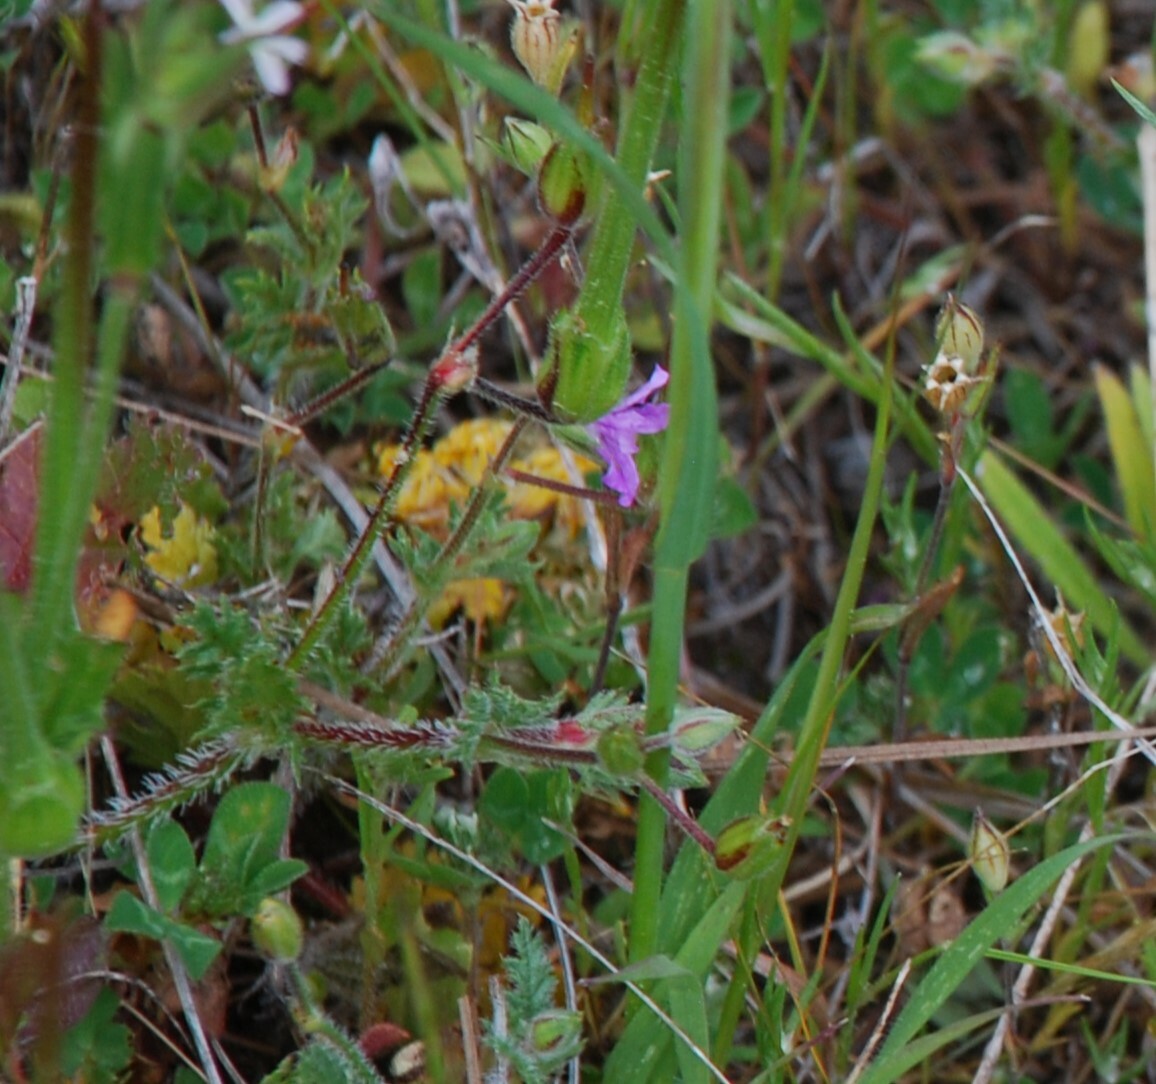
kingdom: Plantae
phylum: Tracheophyta
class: Magnoliopsida
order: Geraniales
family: Geraniaceae
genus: Erodium
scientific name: Erodium botrys
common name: Mediterranean stork's-bill
